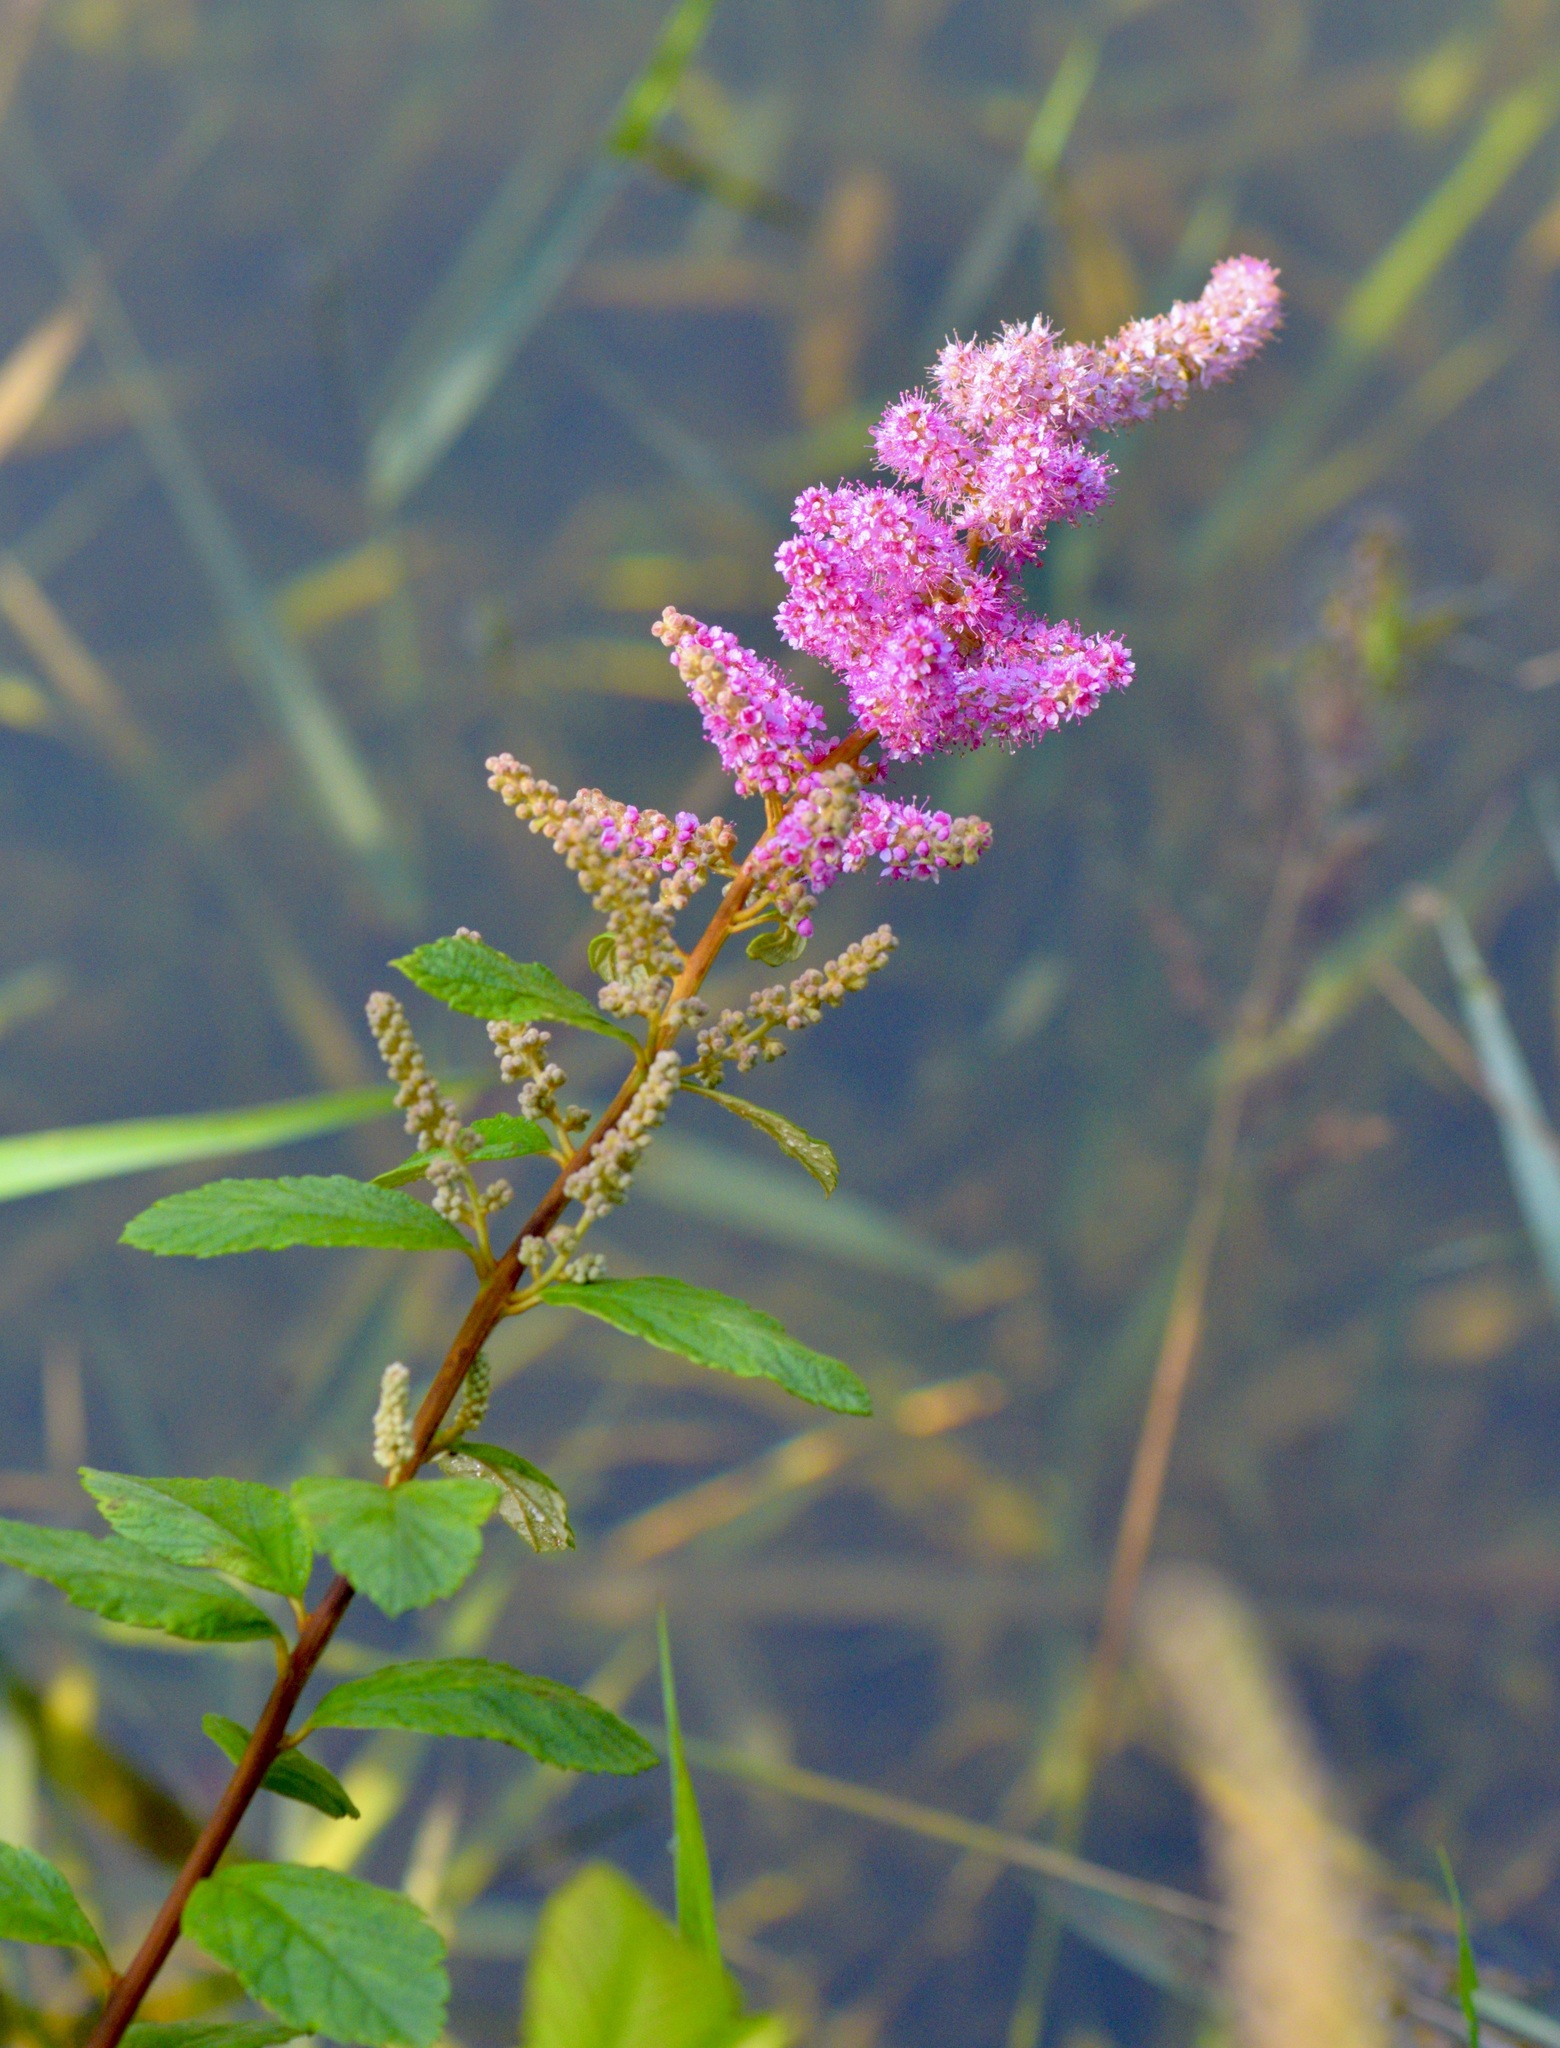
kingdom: Plantae
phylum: Tracheophyta
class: Magnoliopsida
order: Rosales
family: Rosaceae
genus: Spiraea
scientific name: Spiraea tomentosa
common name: Hardhack
